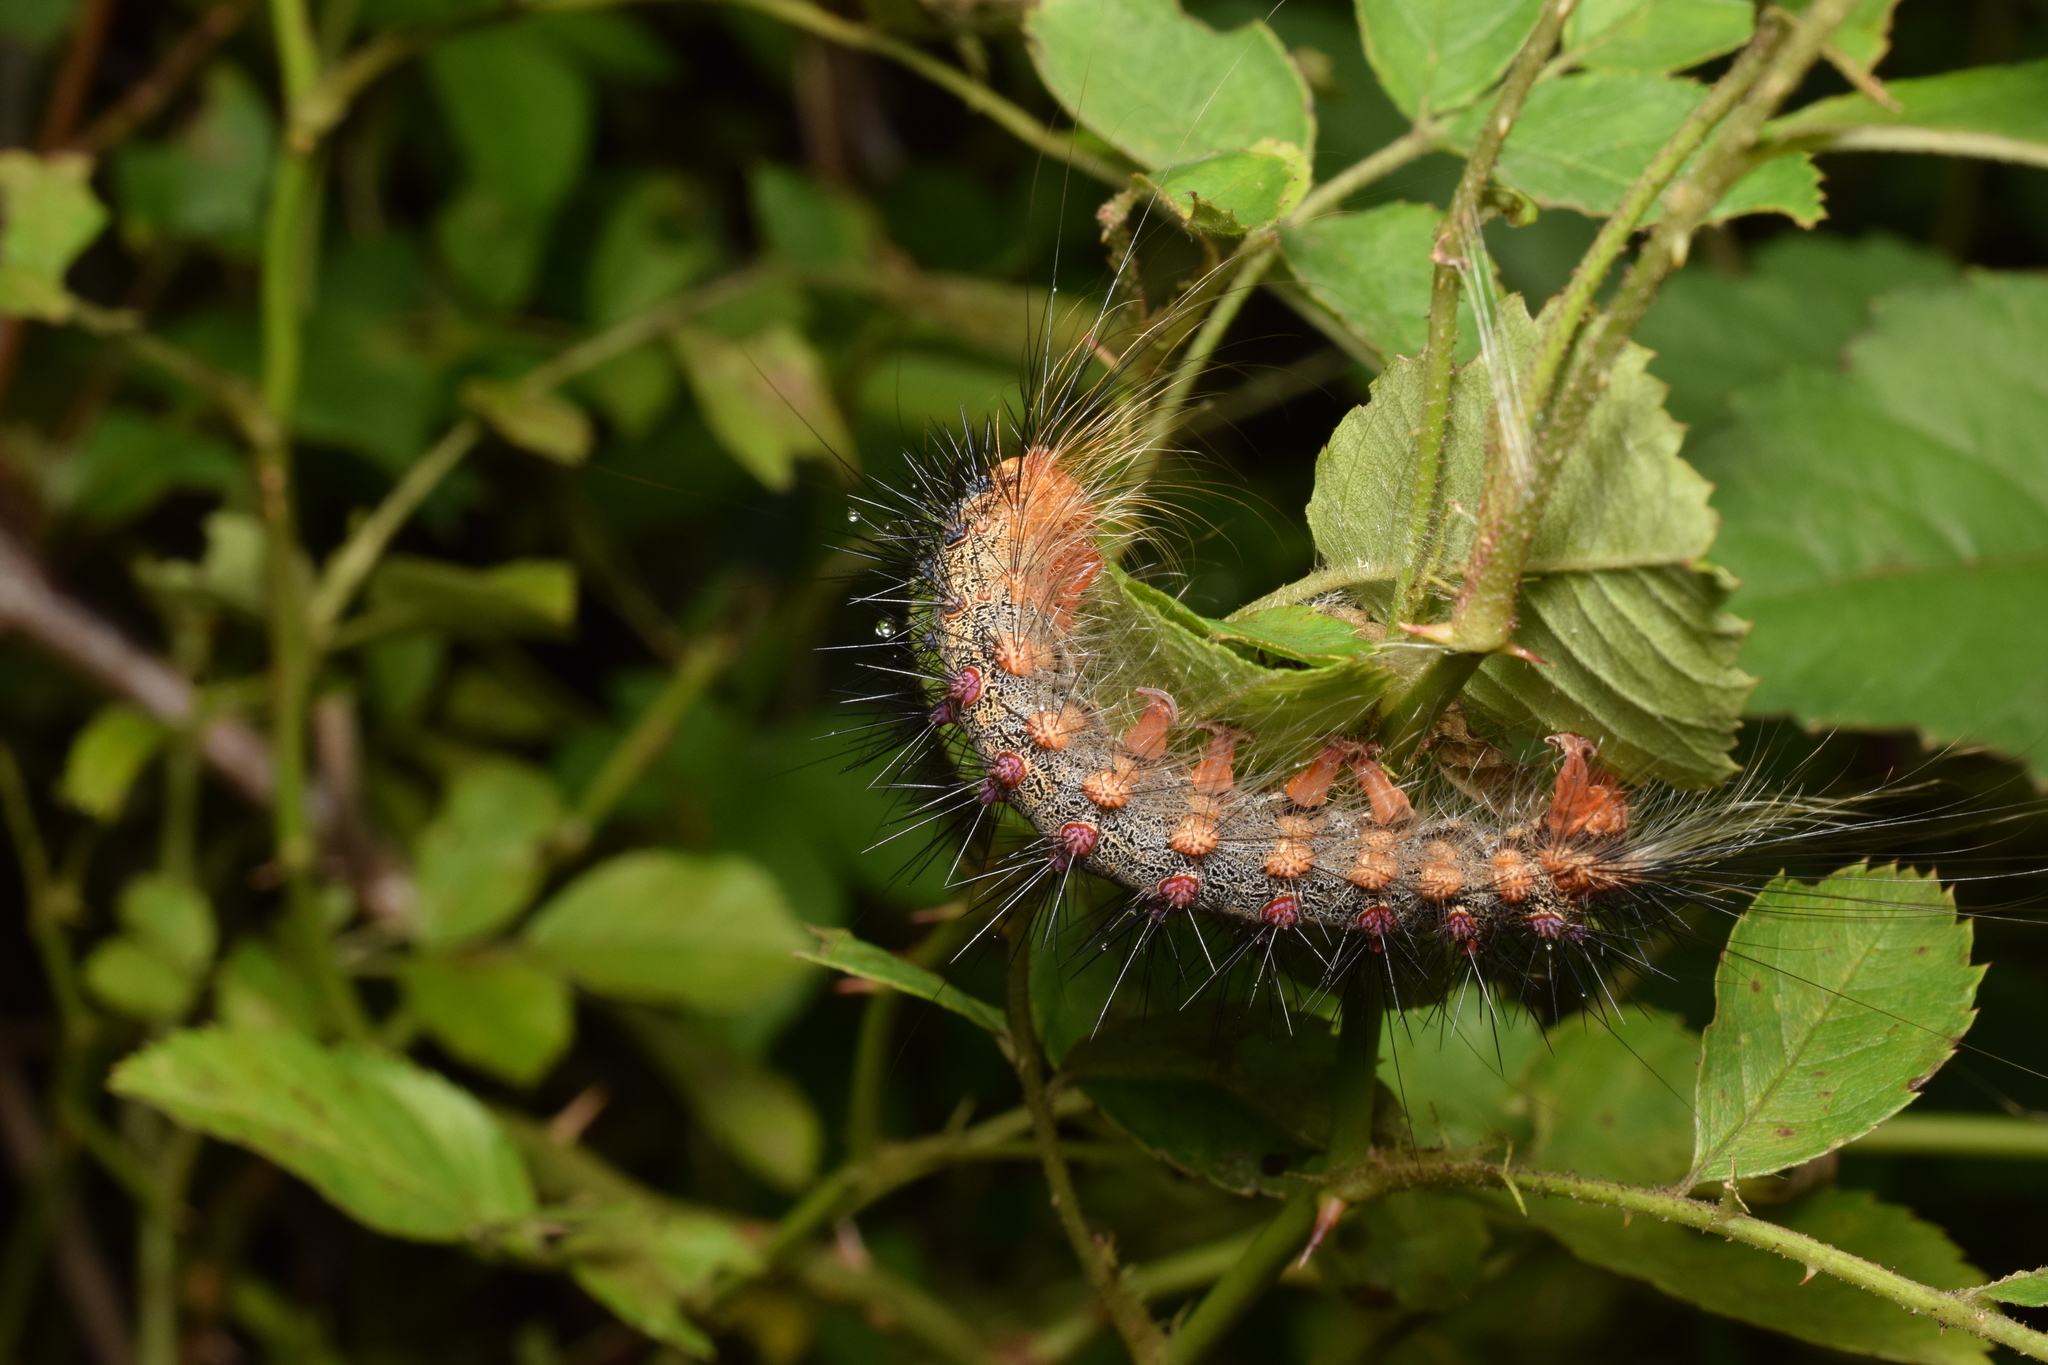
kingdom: Animalia
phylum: Arthropoda
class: Insecta
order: Lepidoptera
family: Erebidae
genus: Lymantria
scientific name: Lymantria dispar
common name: Gypsy moth
